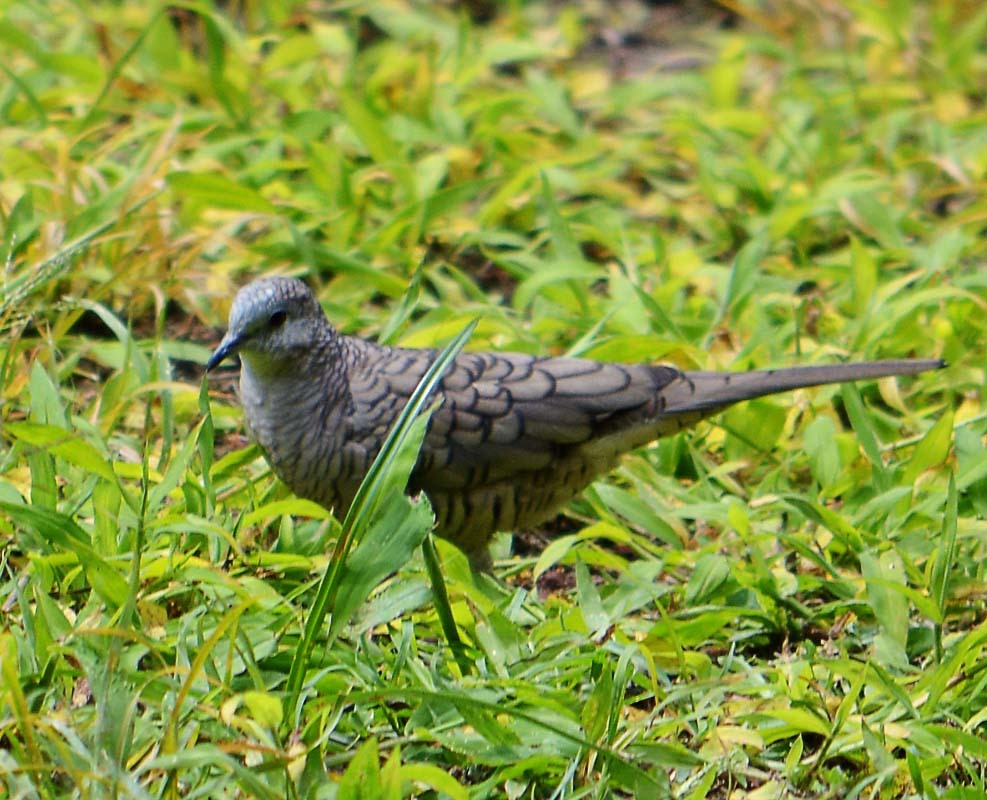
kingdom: Animalia
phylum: Chordata
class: Aves
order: Columbiformes
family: Columbidae
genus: Columbina
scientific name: Columbina inca
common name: Inca dove
